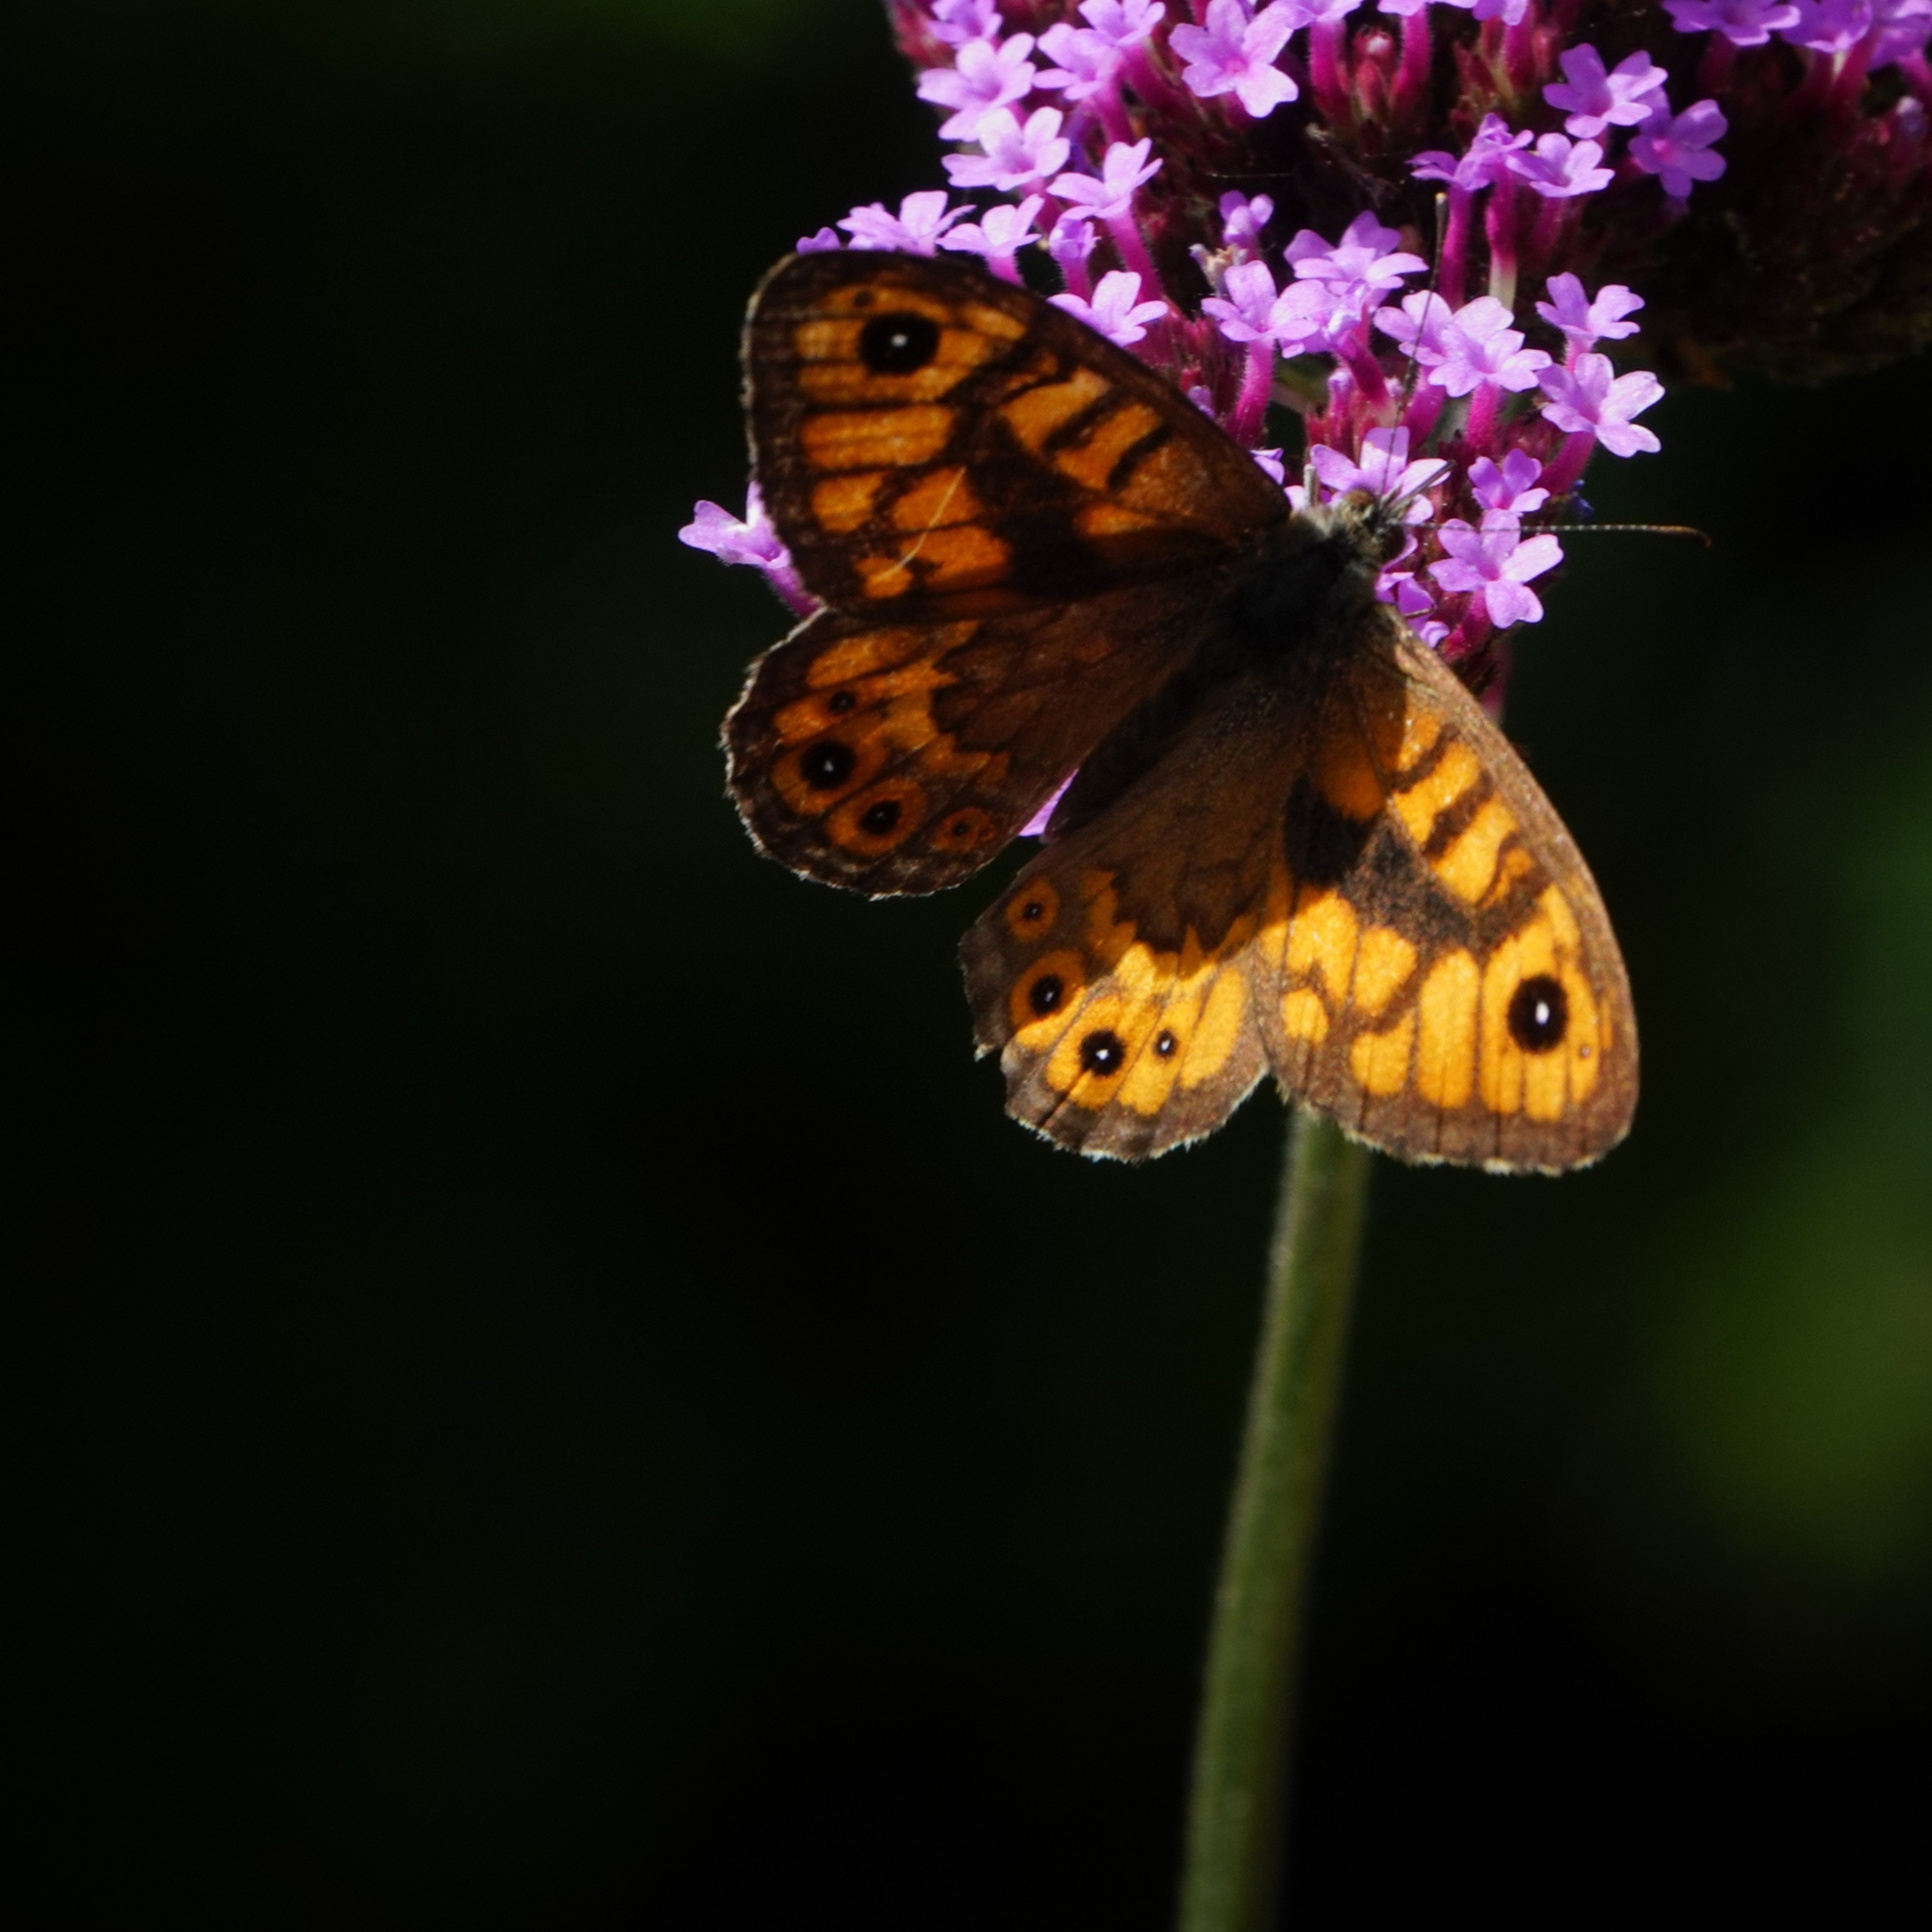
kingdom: Animalia
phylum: Arthropoda
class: Insecta
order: Lepidoptera
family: Nymphalidae
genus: Pararge
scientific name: Pararge Lasiommata megera
